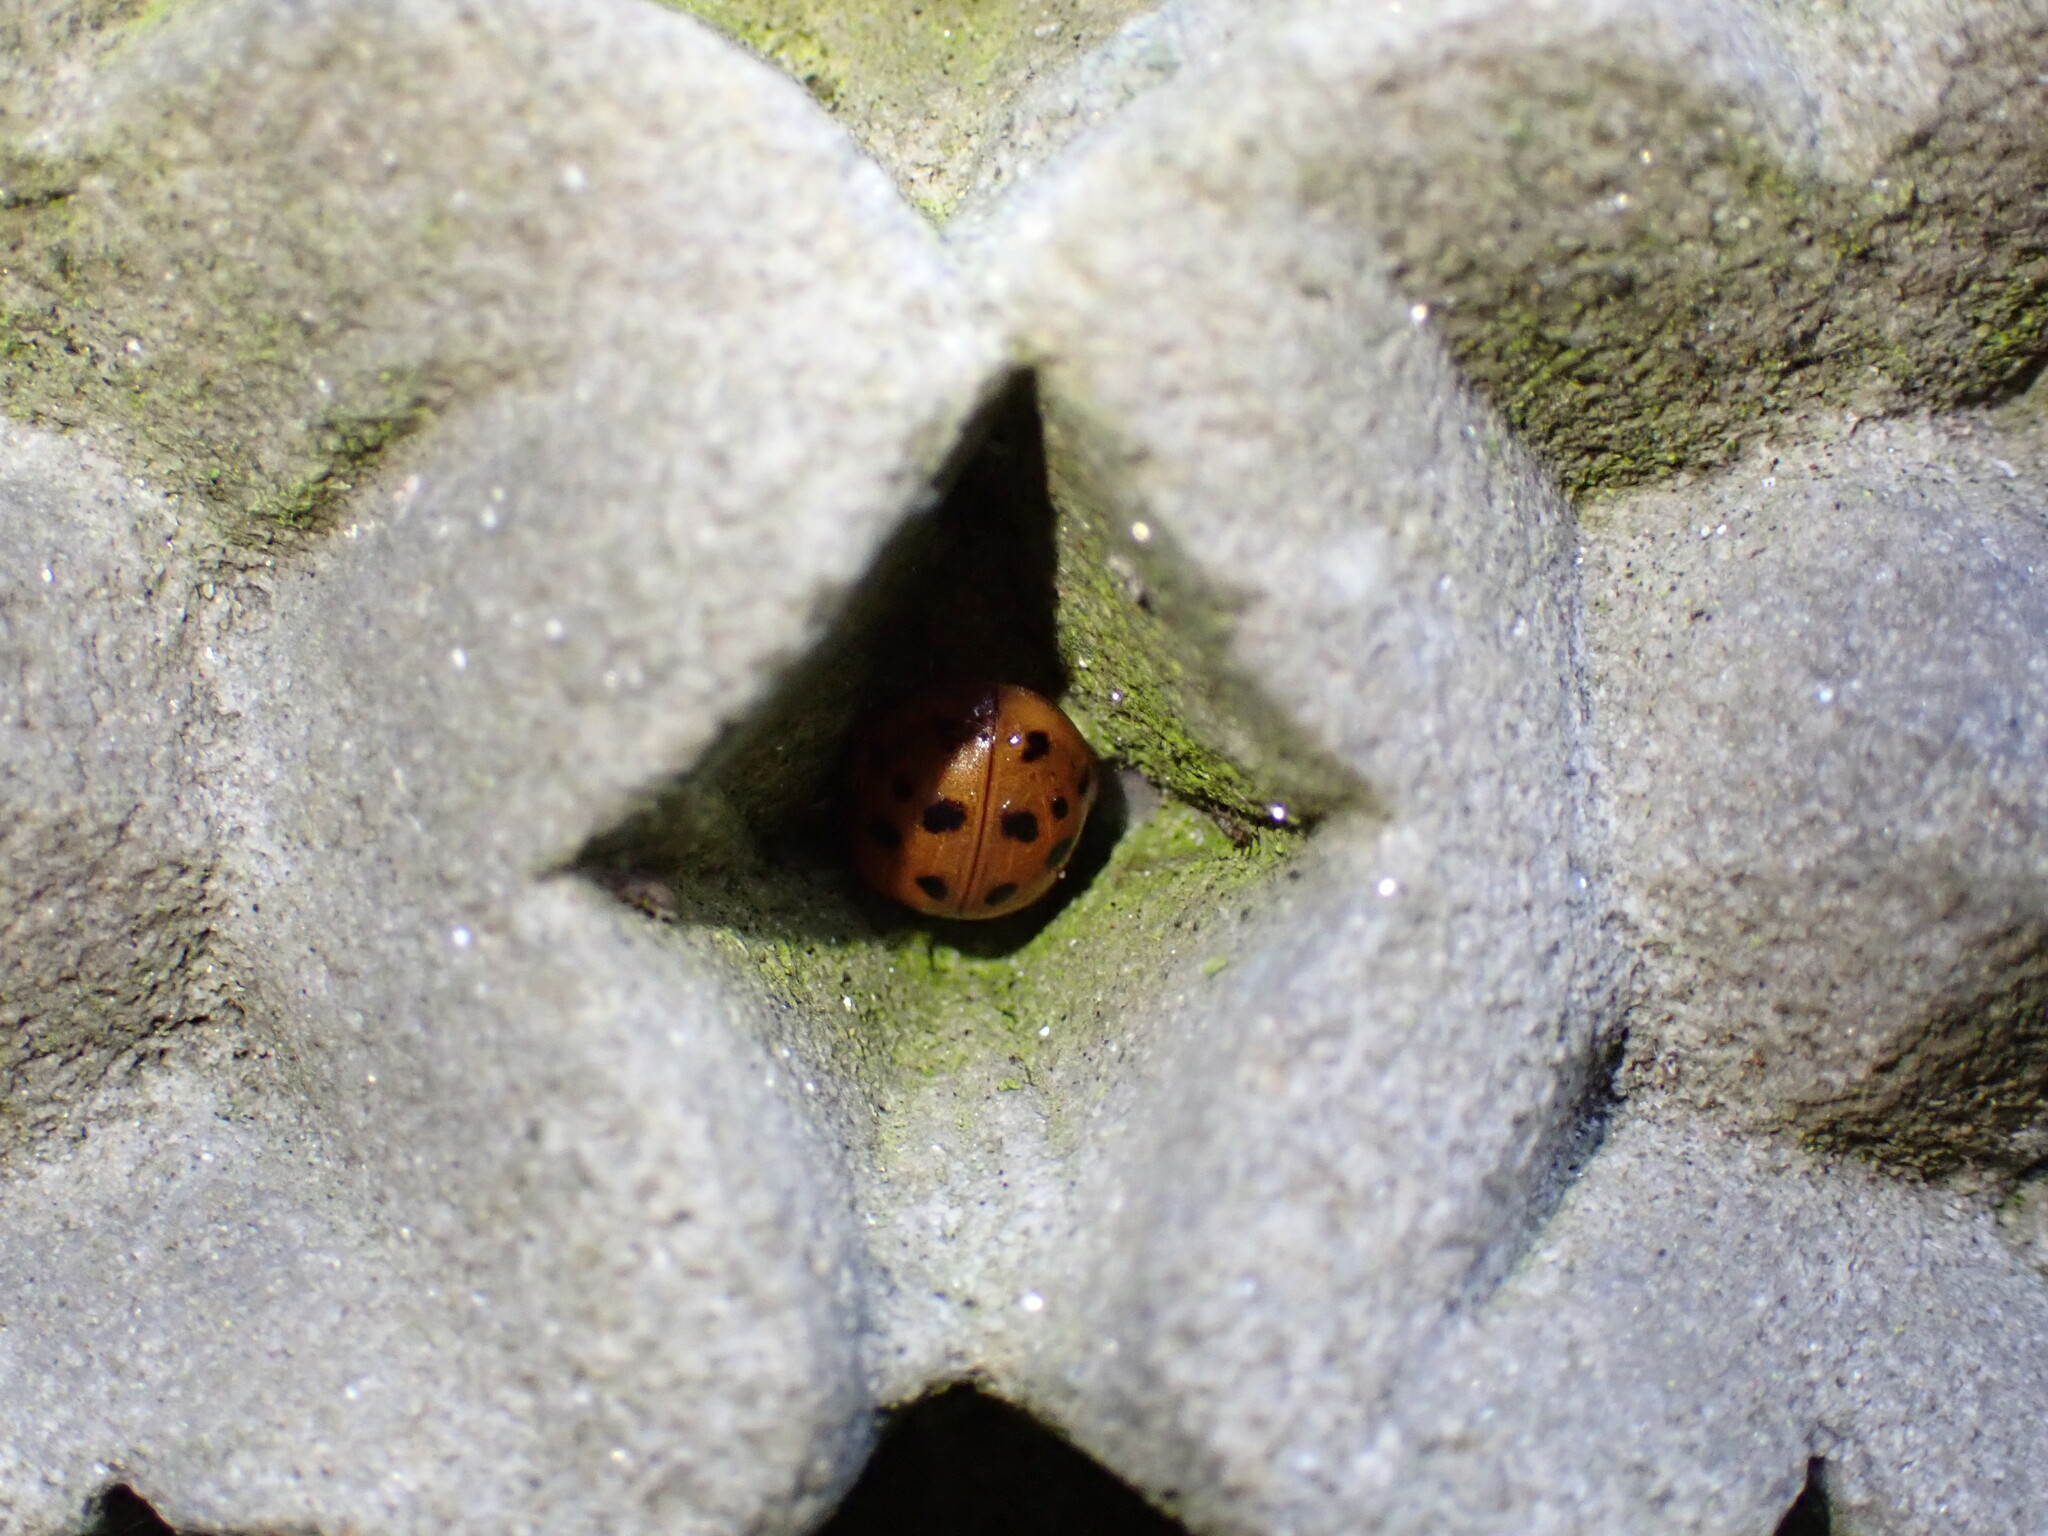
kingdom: Animalia
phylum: Arthropoda
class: Insecta
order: Coleoptera
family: Coccinellidae
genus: Harmonia
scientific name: Harmonia axyridis
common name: Harlequin ladybird
